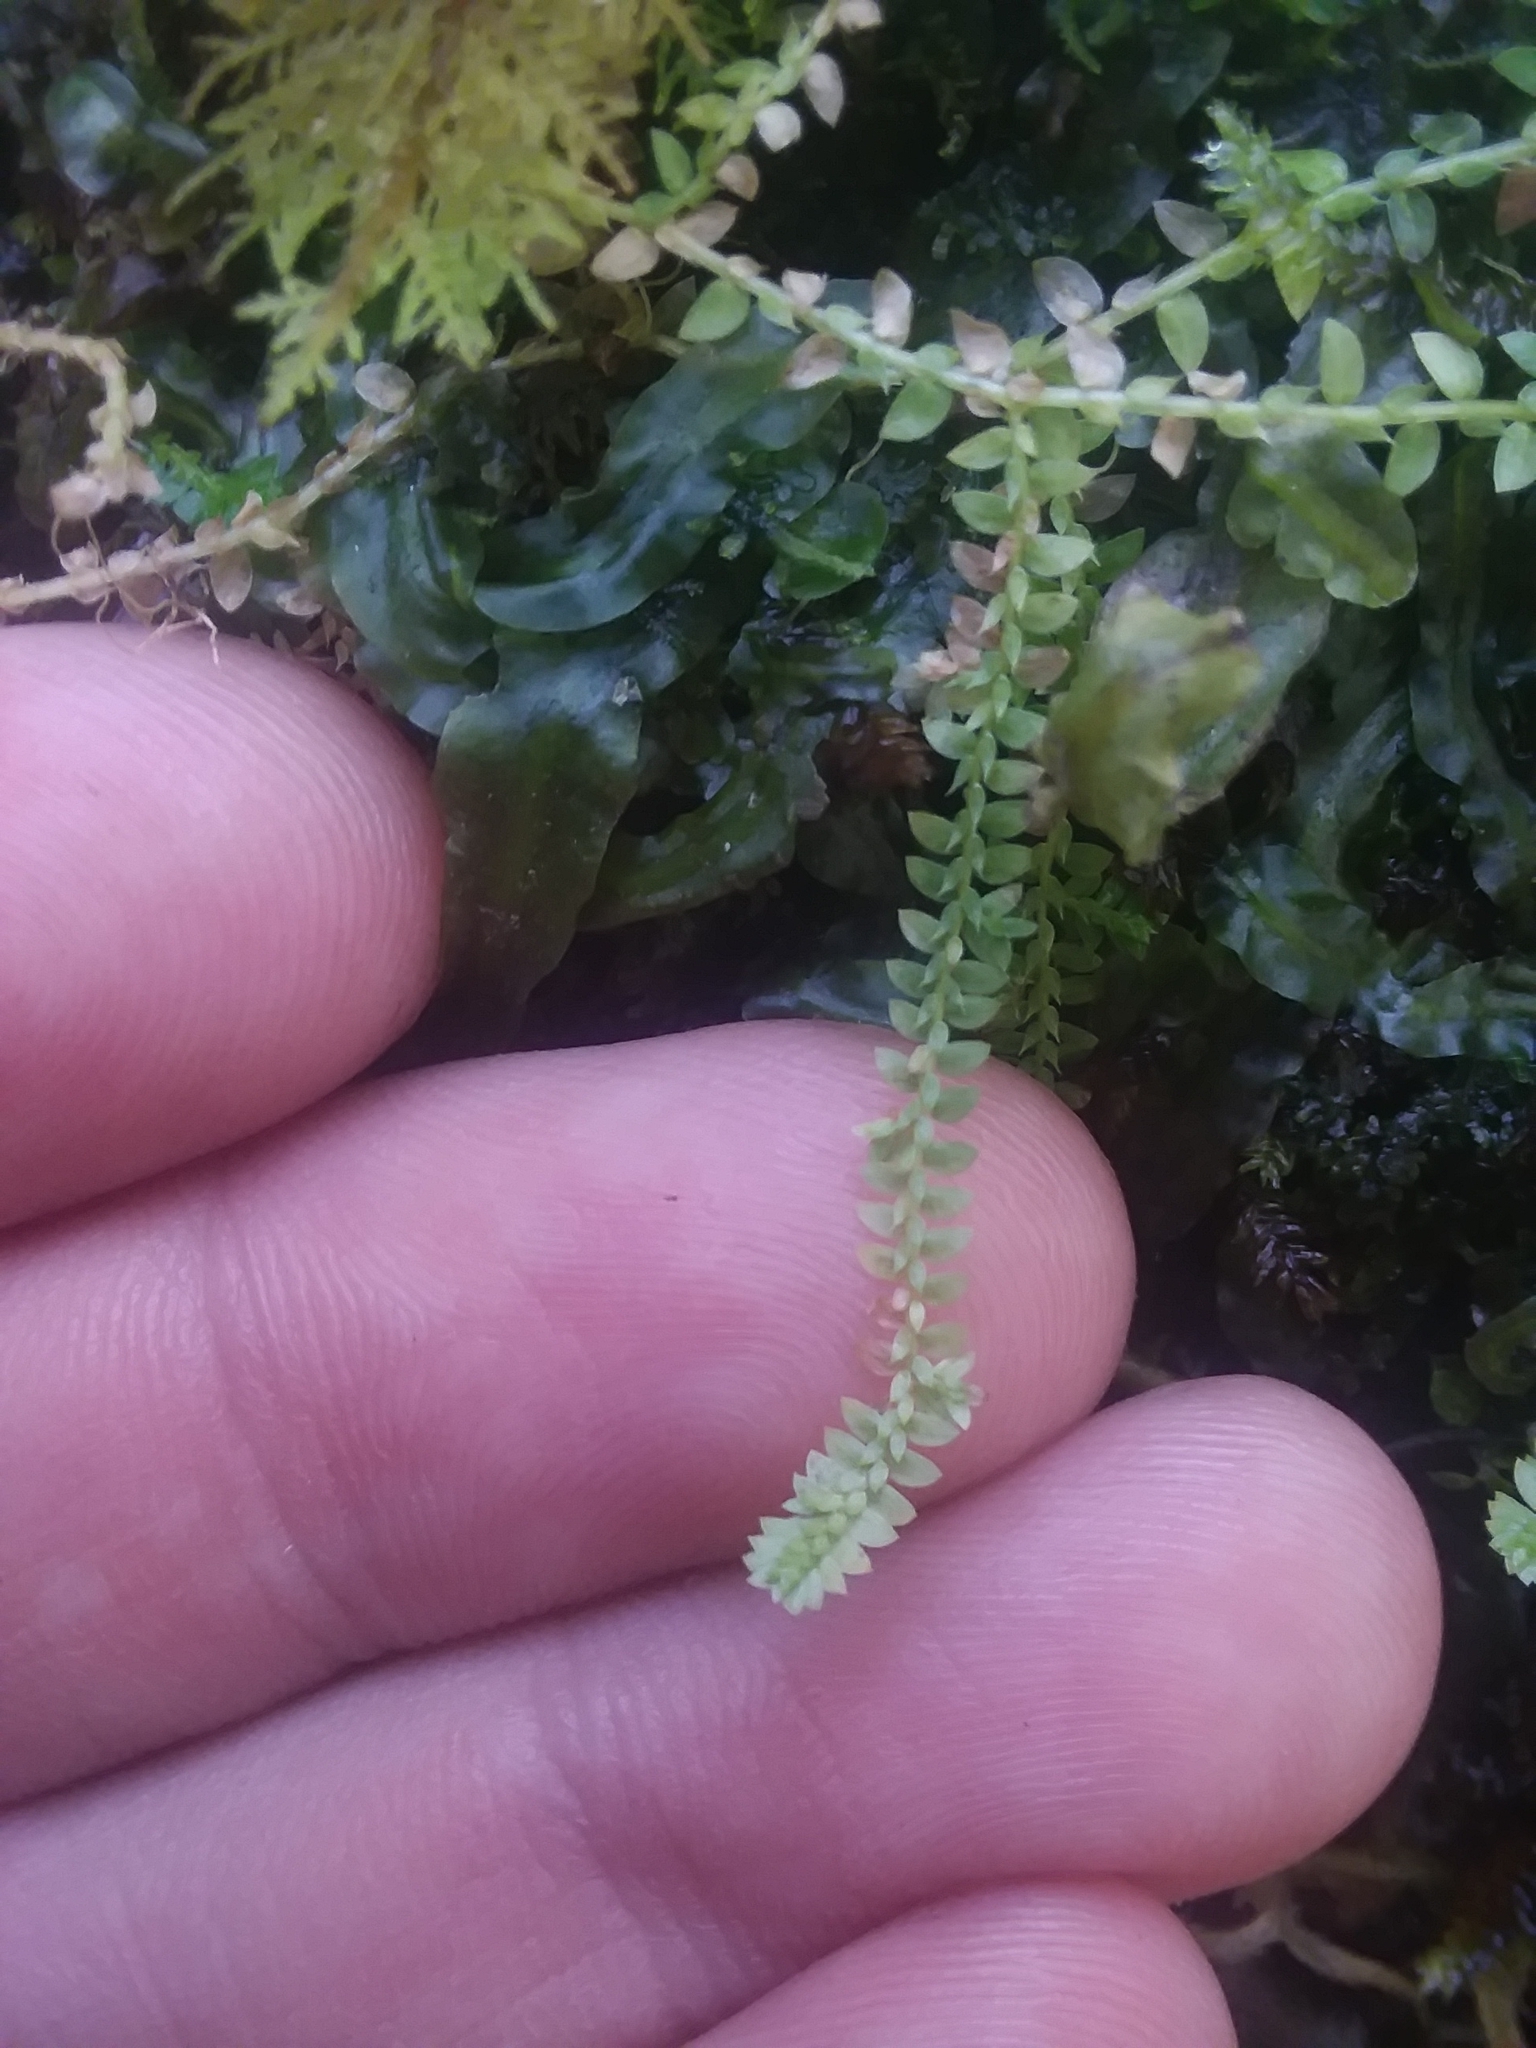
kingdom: Plantae
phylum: Tracheophyta
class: Lycopodiopsida
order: Selaginellales
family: Selaginellaceae
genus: Selaginella
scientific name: Selaginella apoda
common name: Creeping spikemoss
